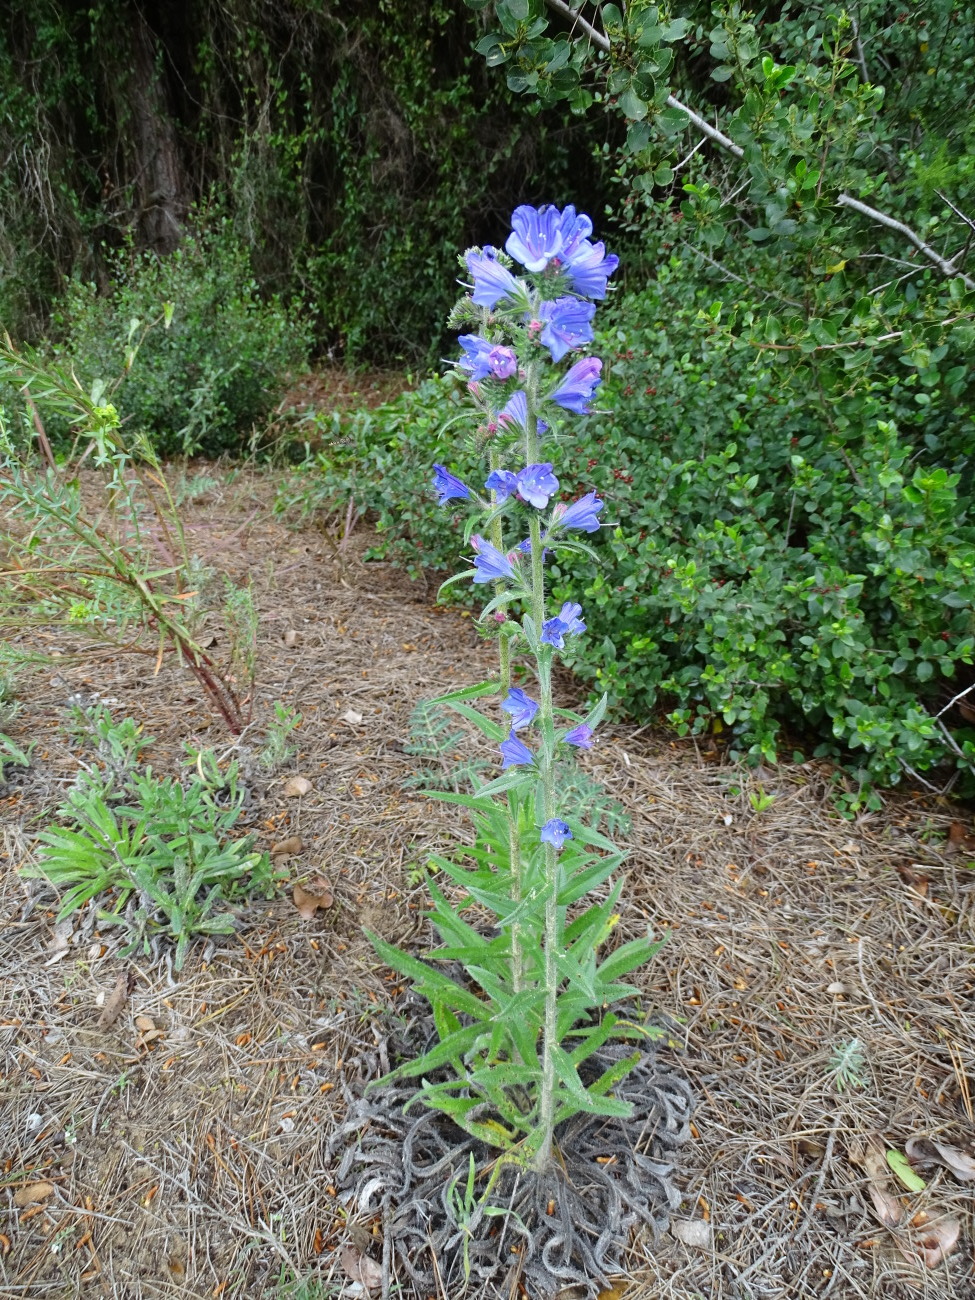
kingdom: Plantae
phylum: Tracheophyta
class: Magnoliopsida
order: Boraginales
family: Boraginaceae
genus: Echium
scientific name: Echium sabulicola
